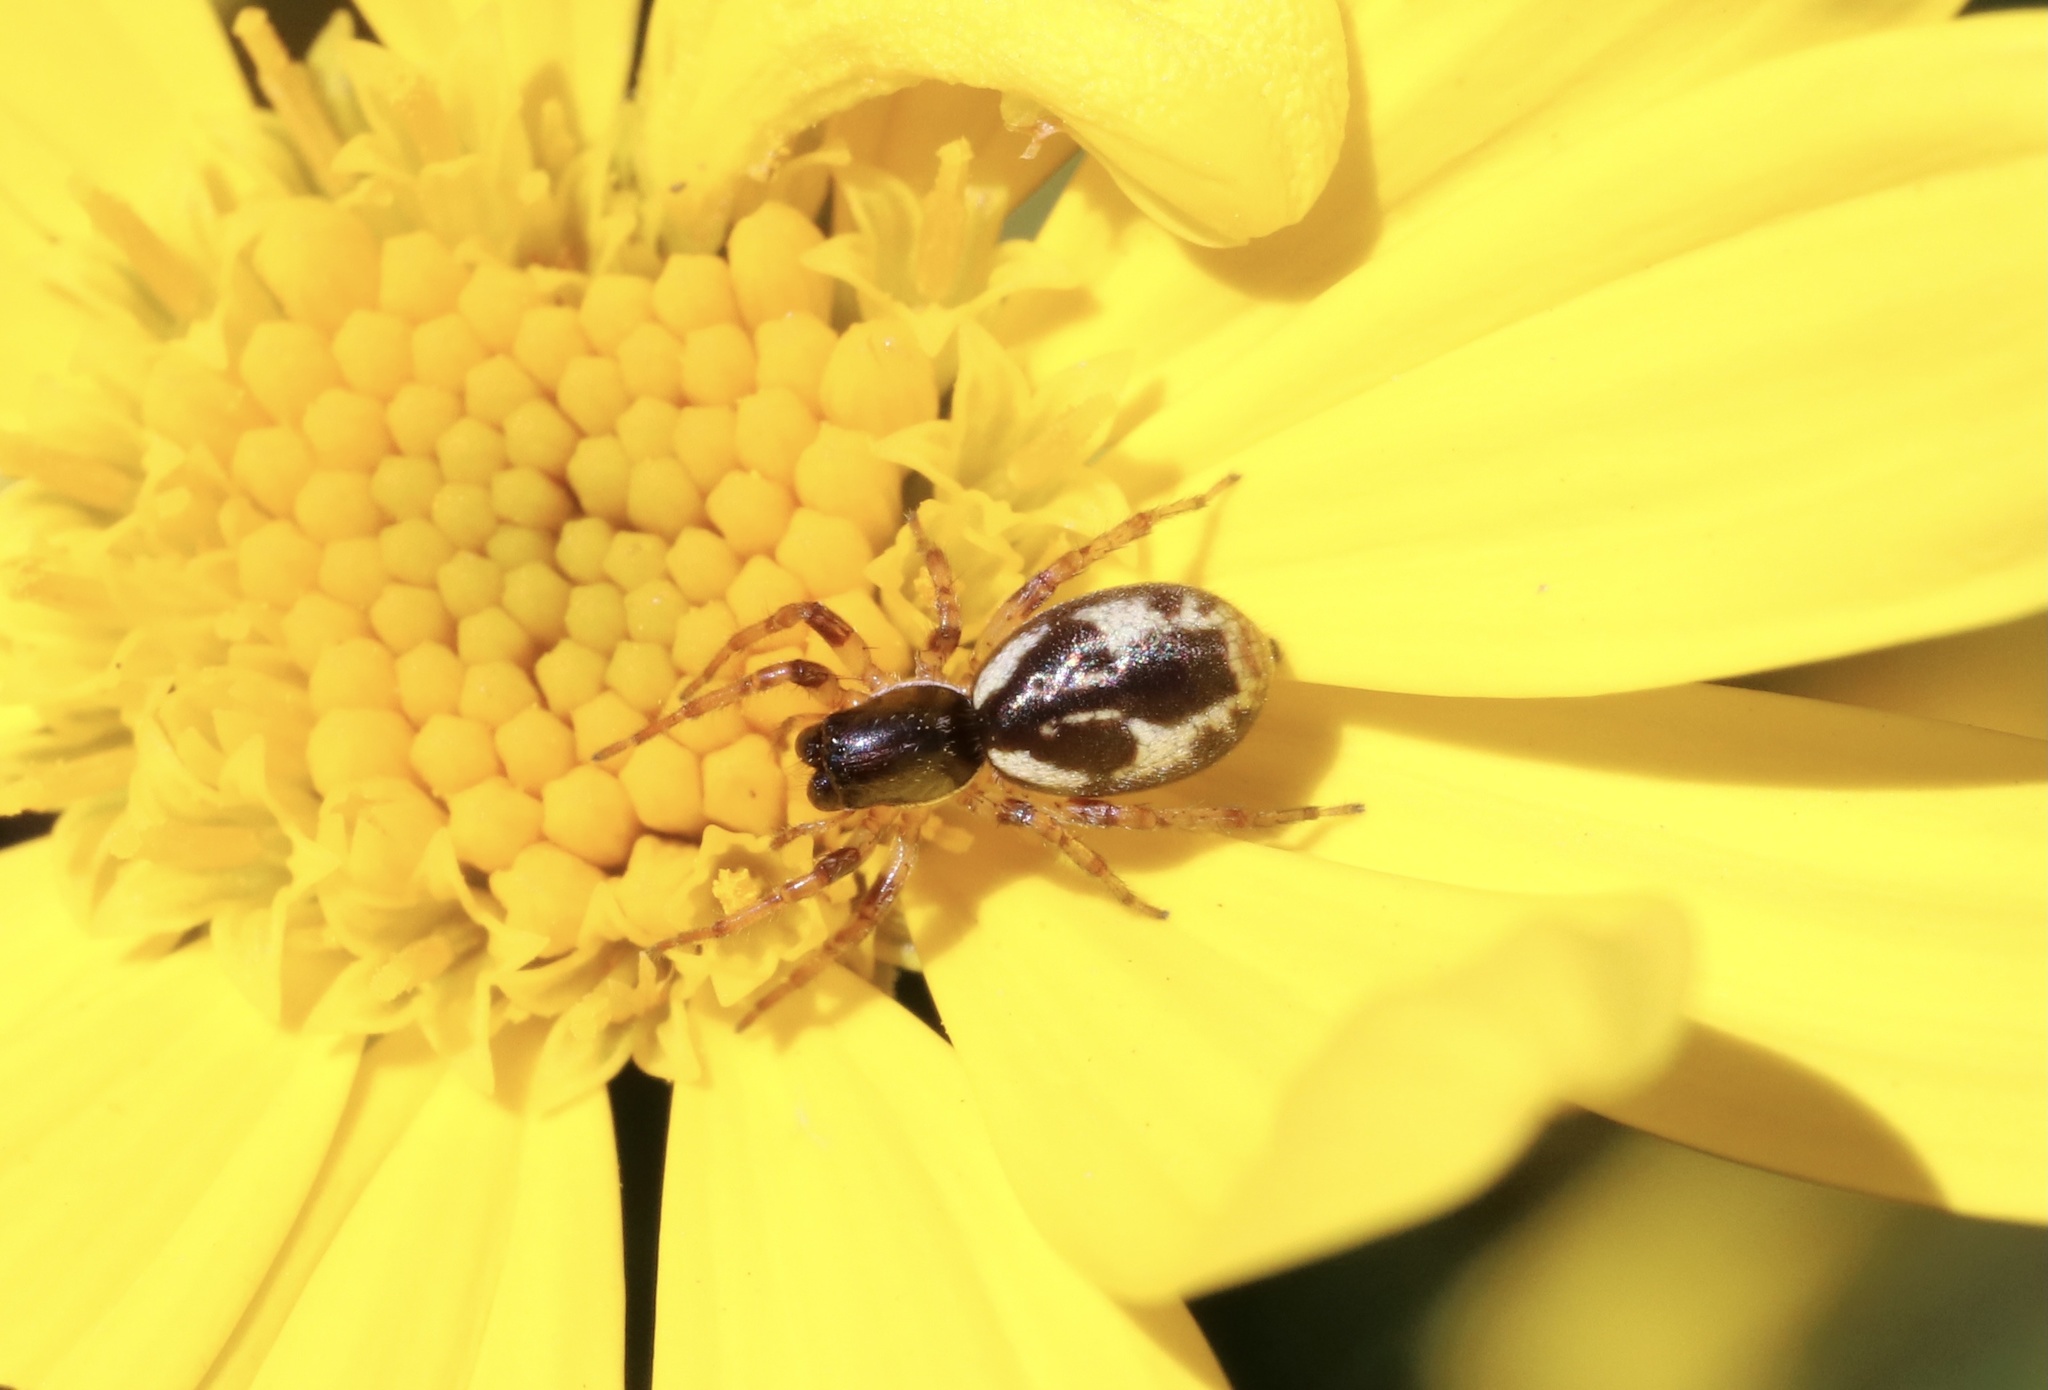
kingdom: Animalia
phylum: Arthropoda
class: Arachnida
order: Araneae
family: Anyphaenidae
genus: Philisca
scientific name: Philisca atrata
